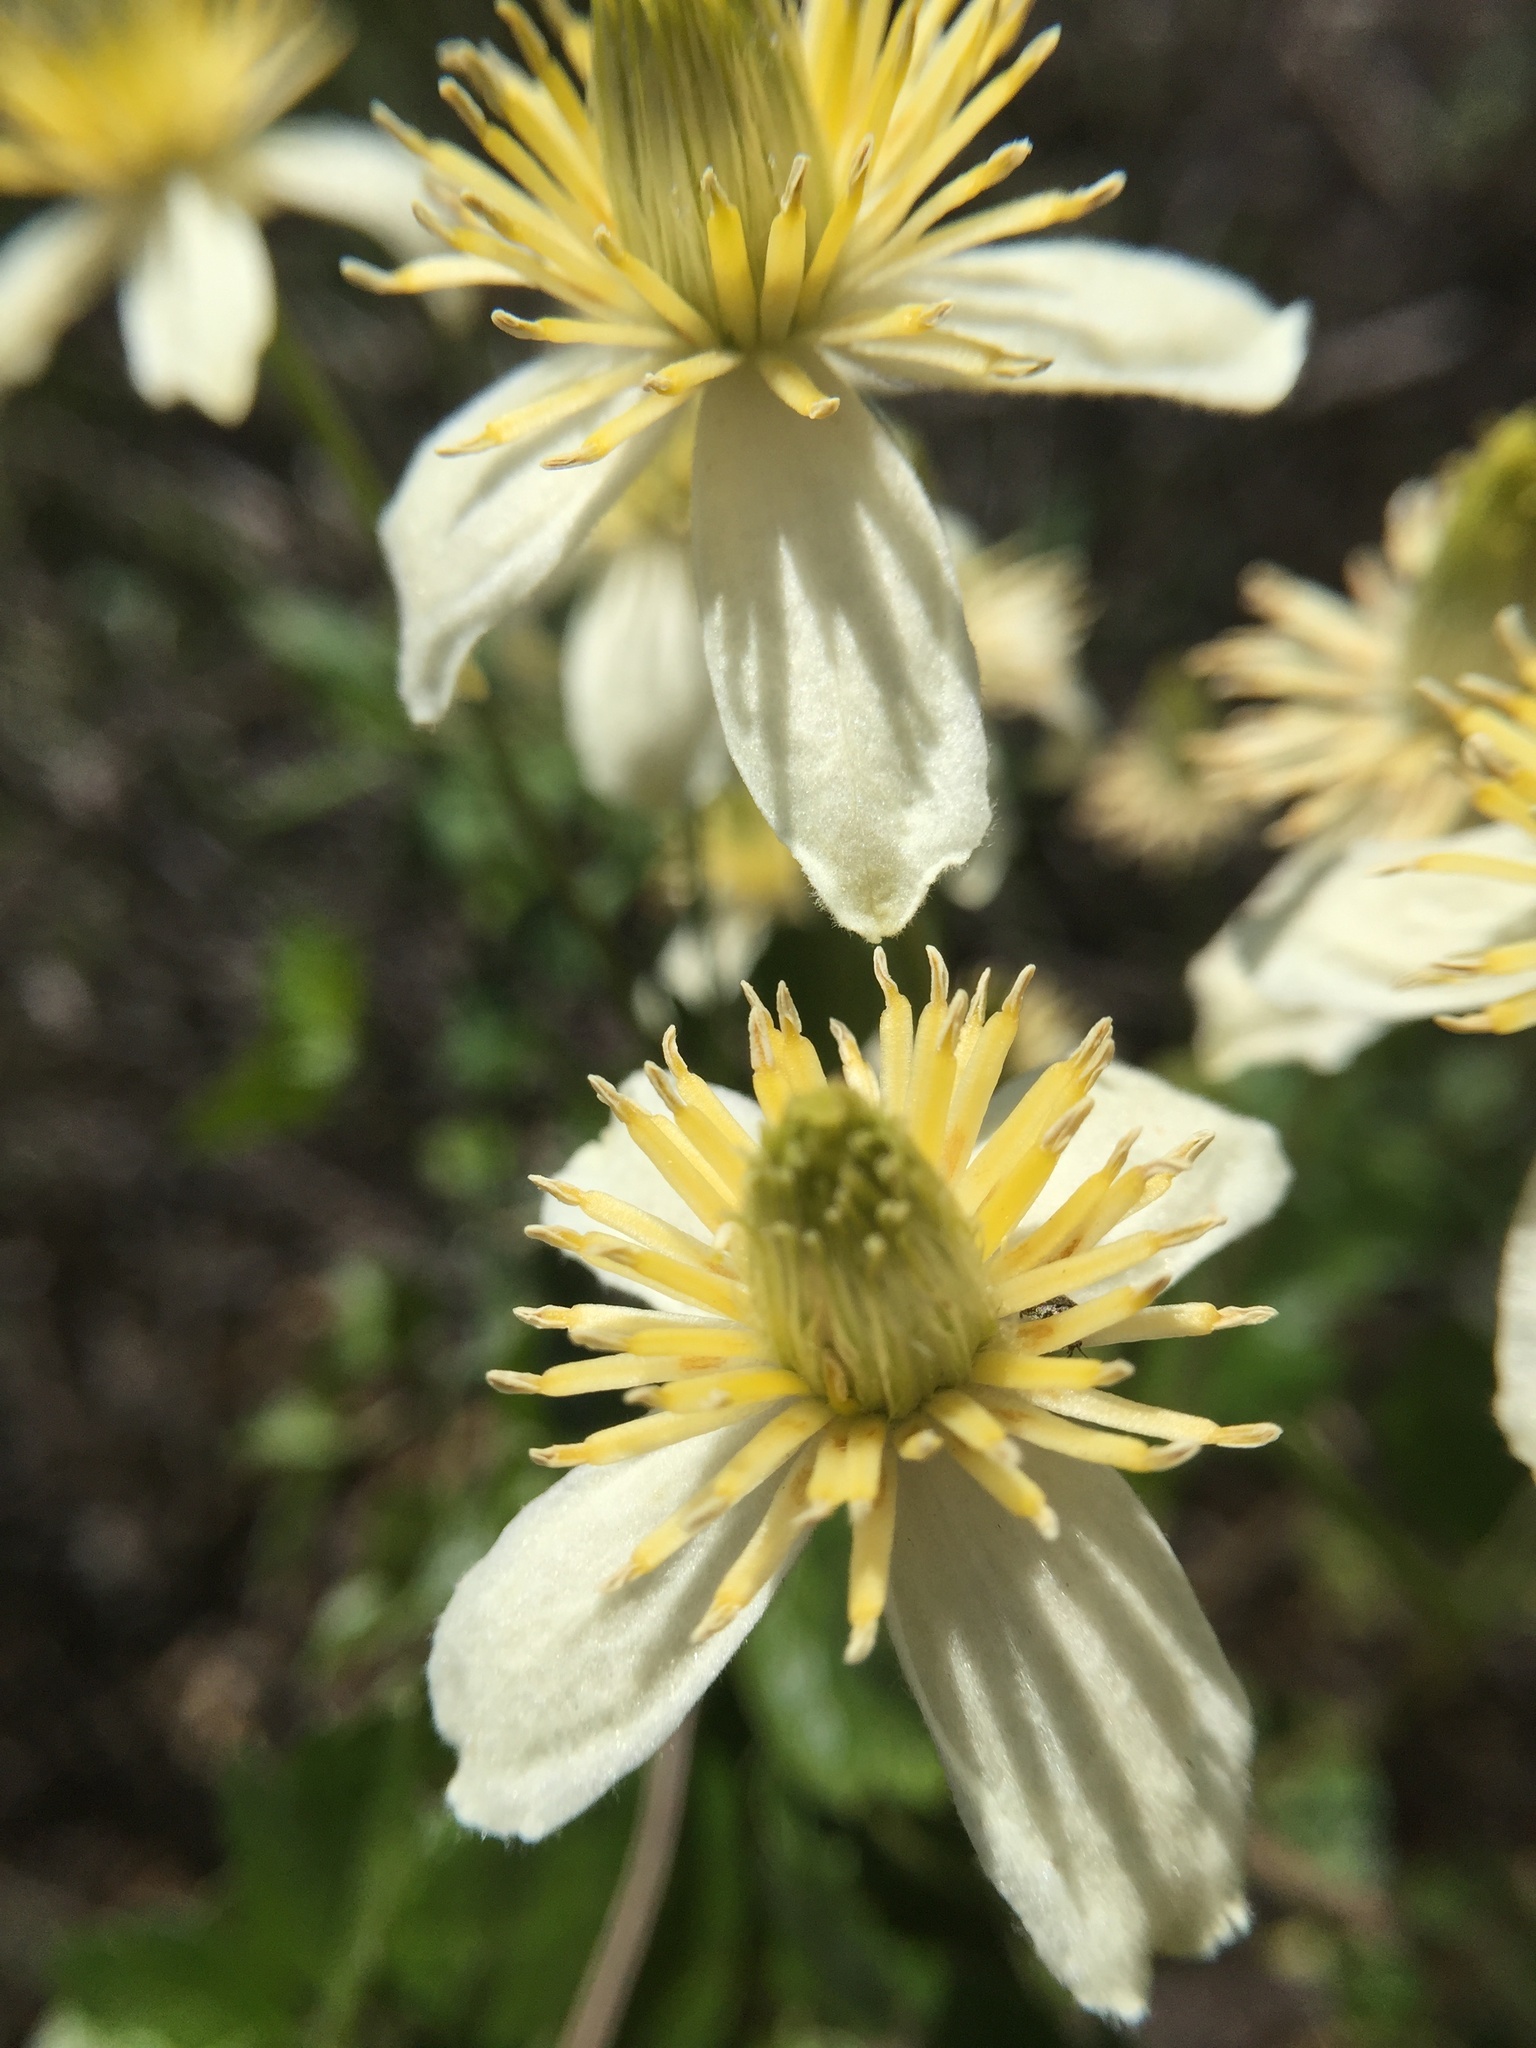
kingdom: Plantae
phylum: Tracheophyta
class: Magnoliopsida
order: Ranunculales
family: Ranunculaceae
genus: Clematis
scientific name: Clematis lasiantha
